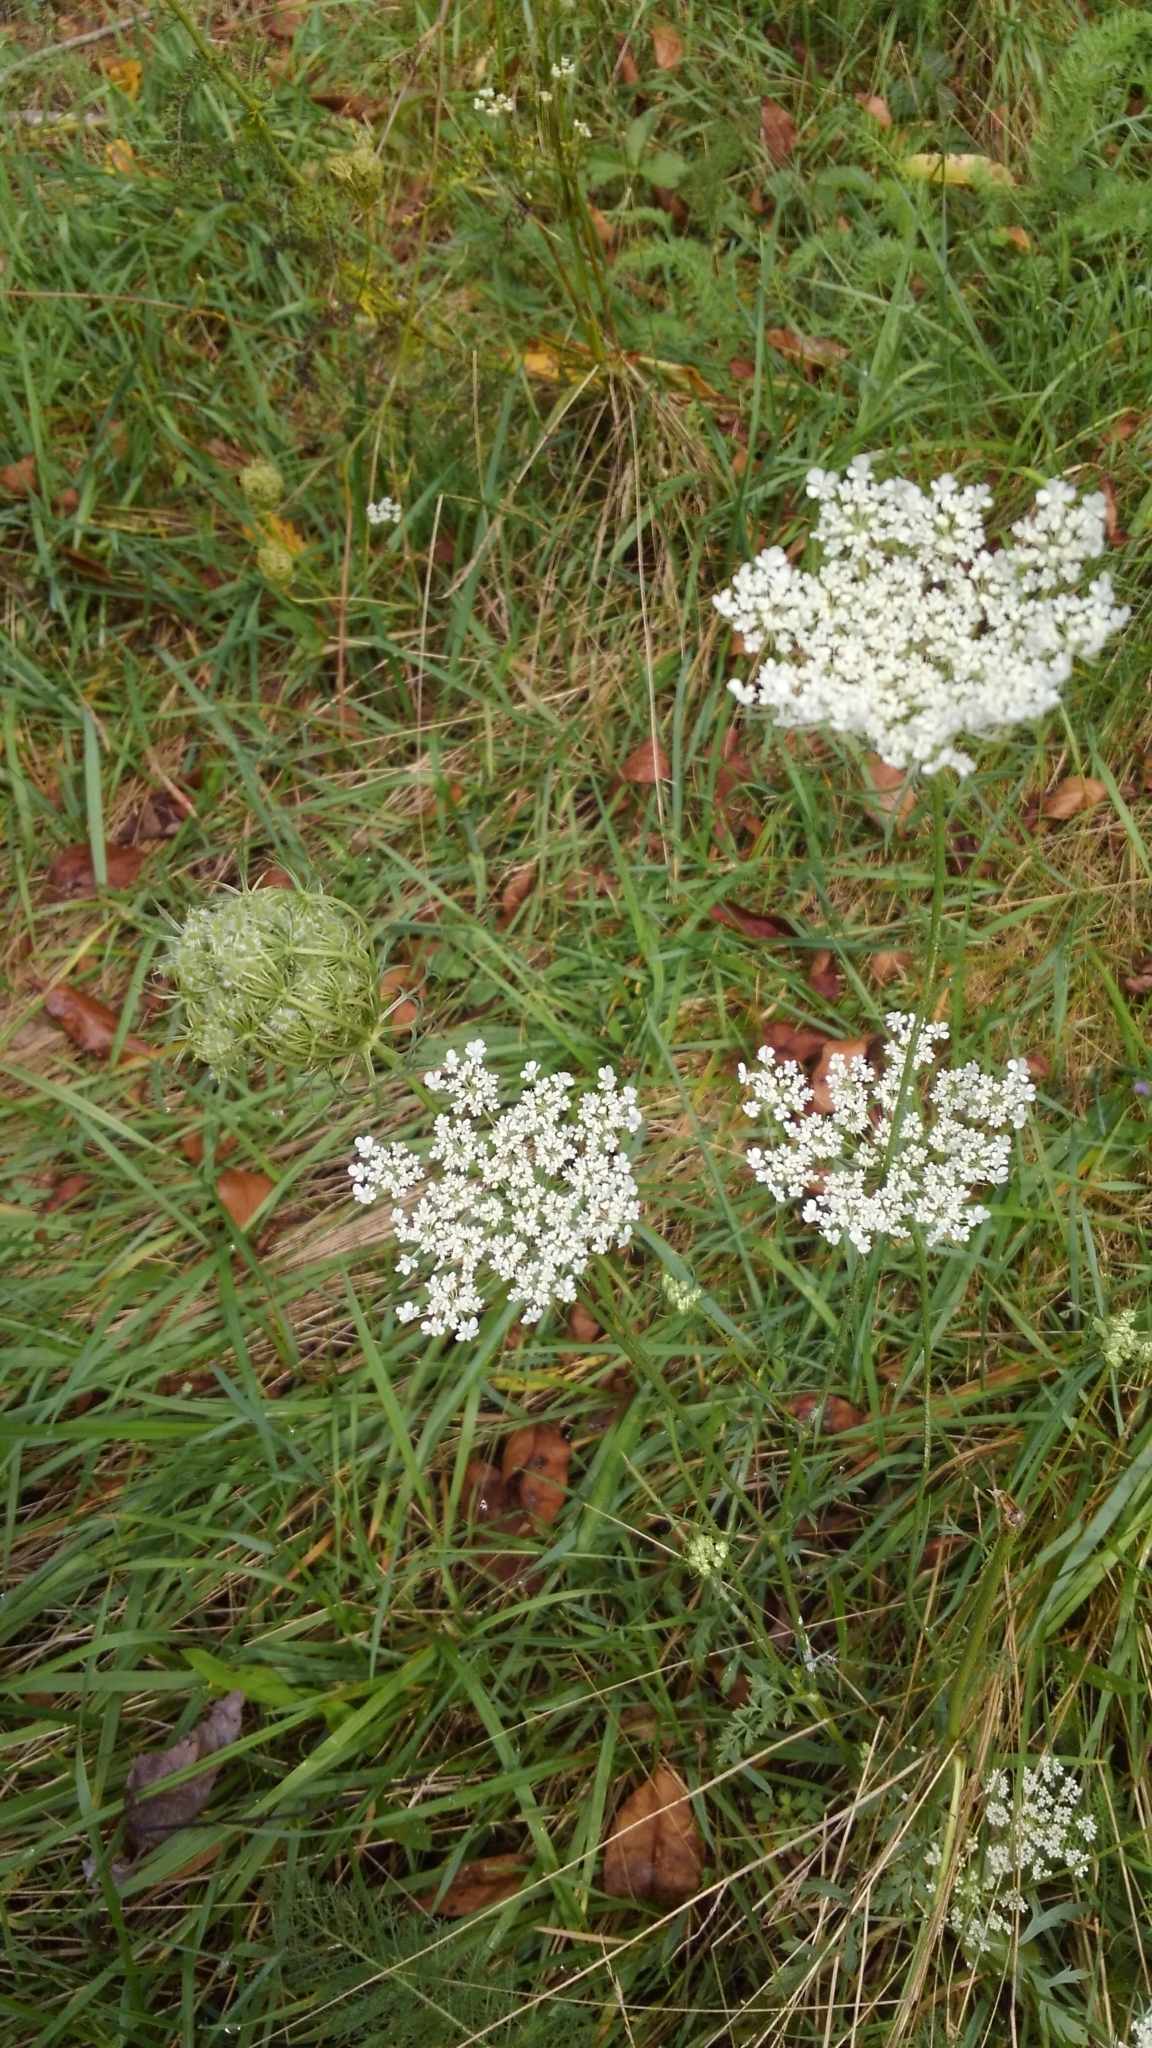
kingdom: Plantae
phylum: Tracheophyta
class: Magnoliopsida
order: Apiales
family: Apiaceae
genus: Daucus
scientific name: Daucus carota
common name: Wild carrot
